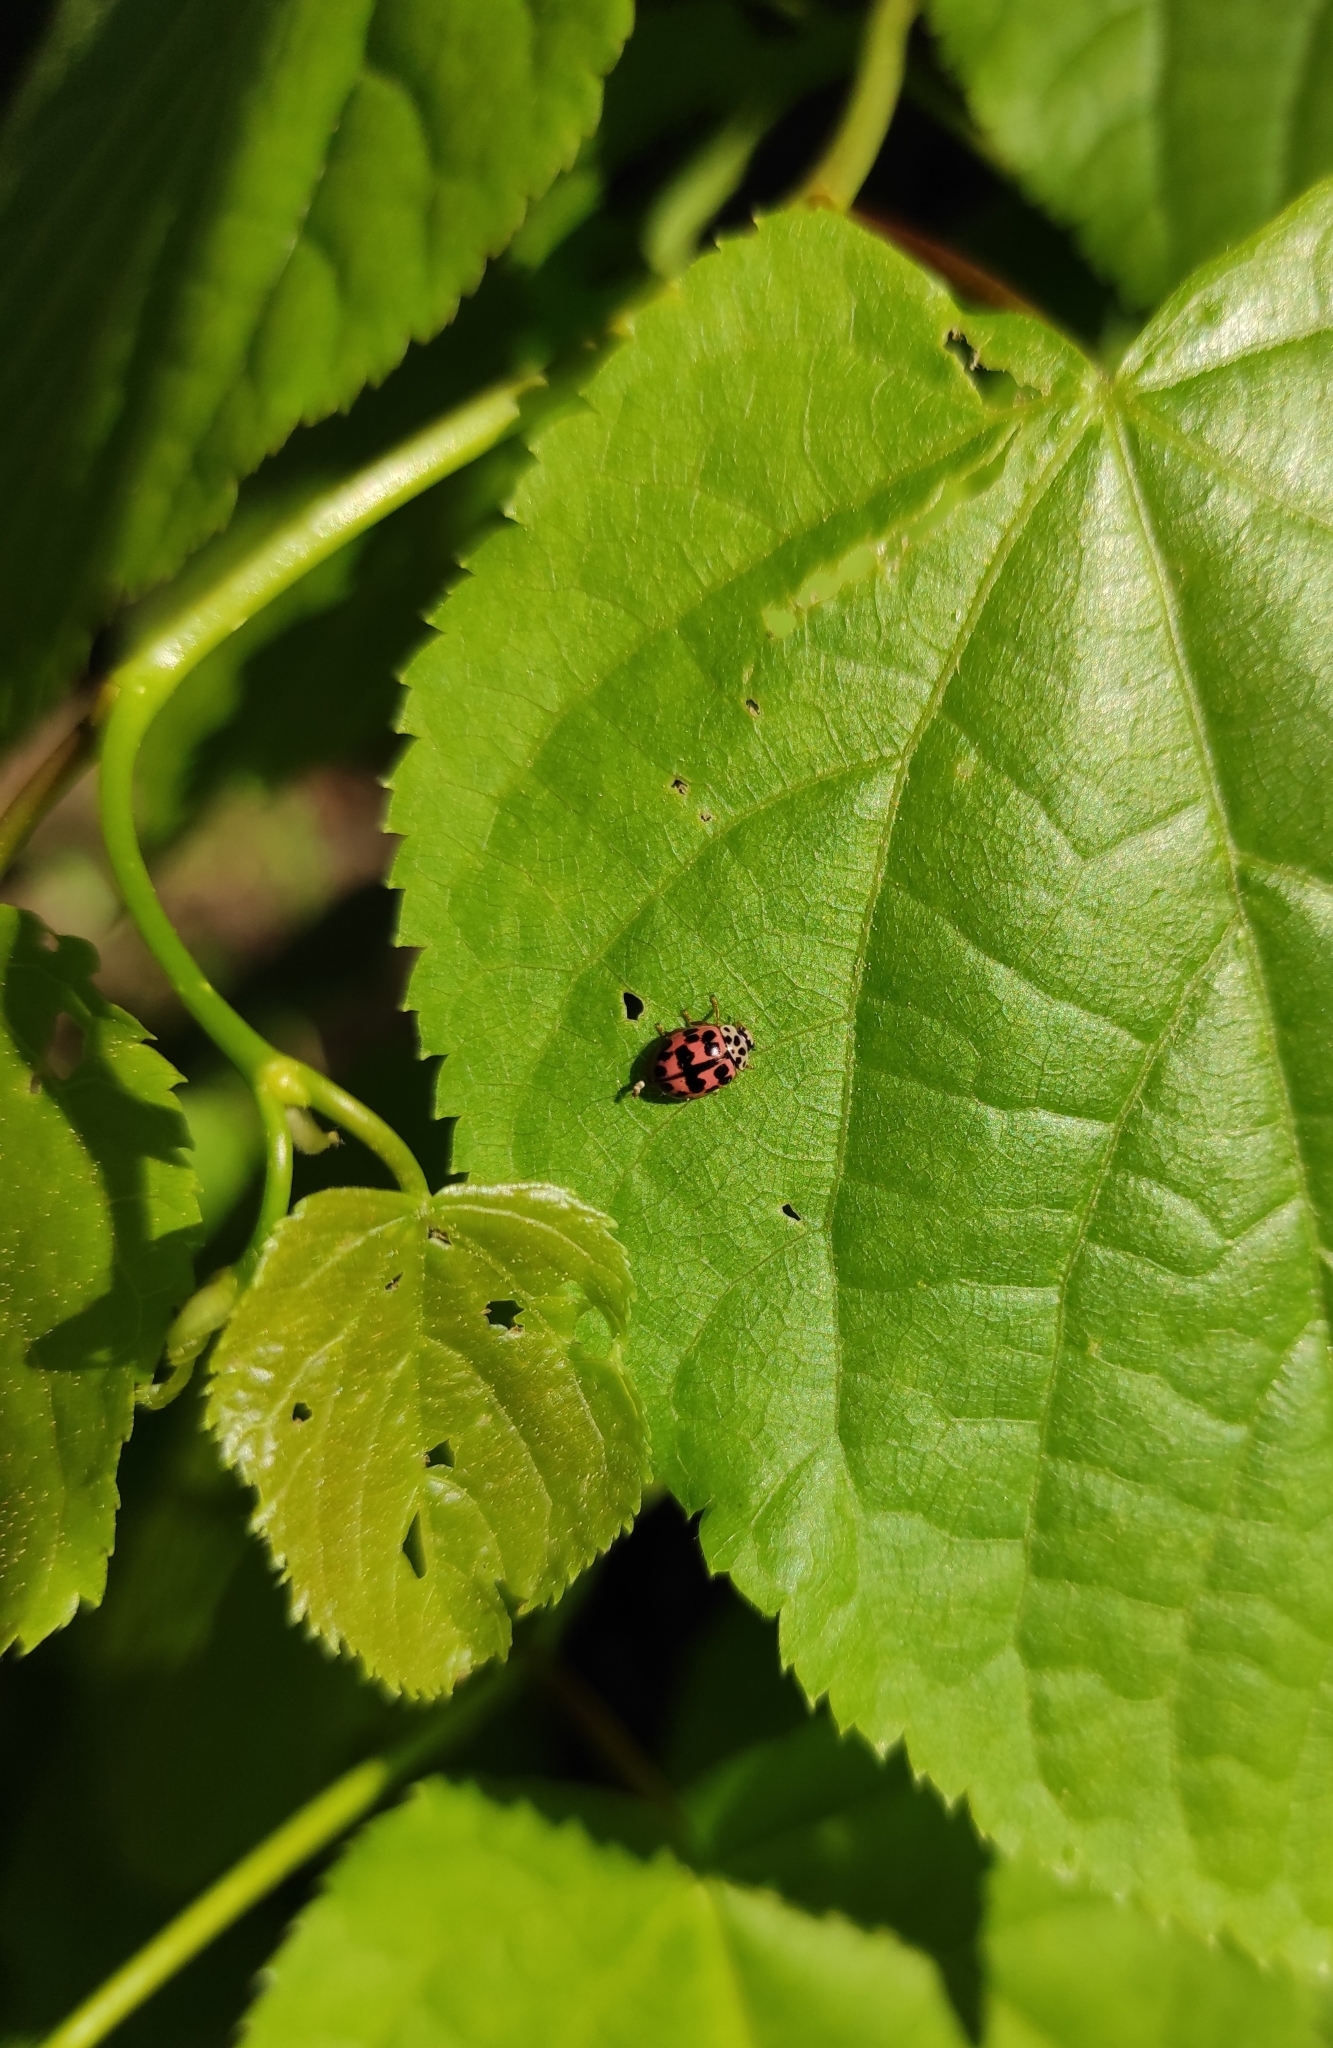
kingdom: Animalia
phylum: Arthropoda
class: Insecta
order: Coleoptera
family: Coccinellidae
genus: Oenopia
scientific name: Oenopia conglobata
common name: Ladybird beetle
